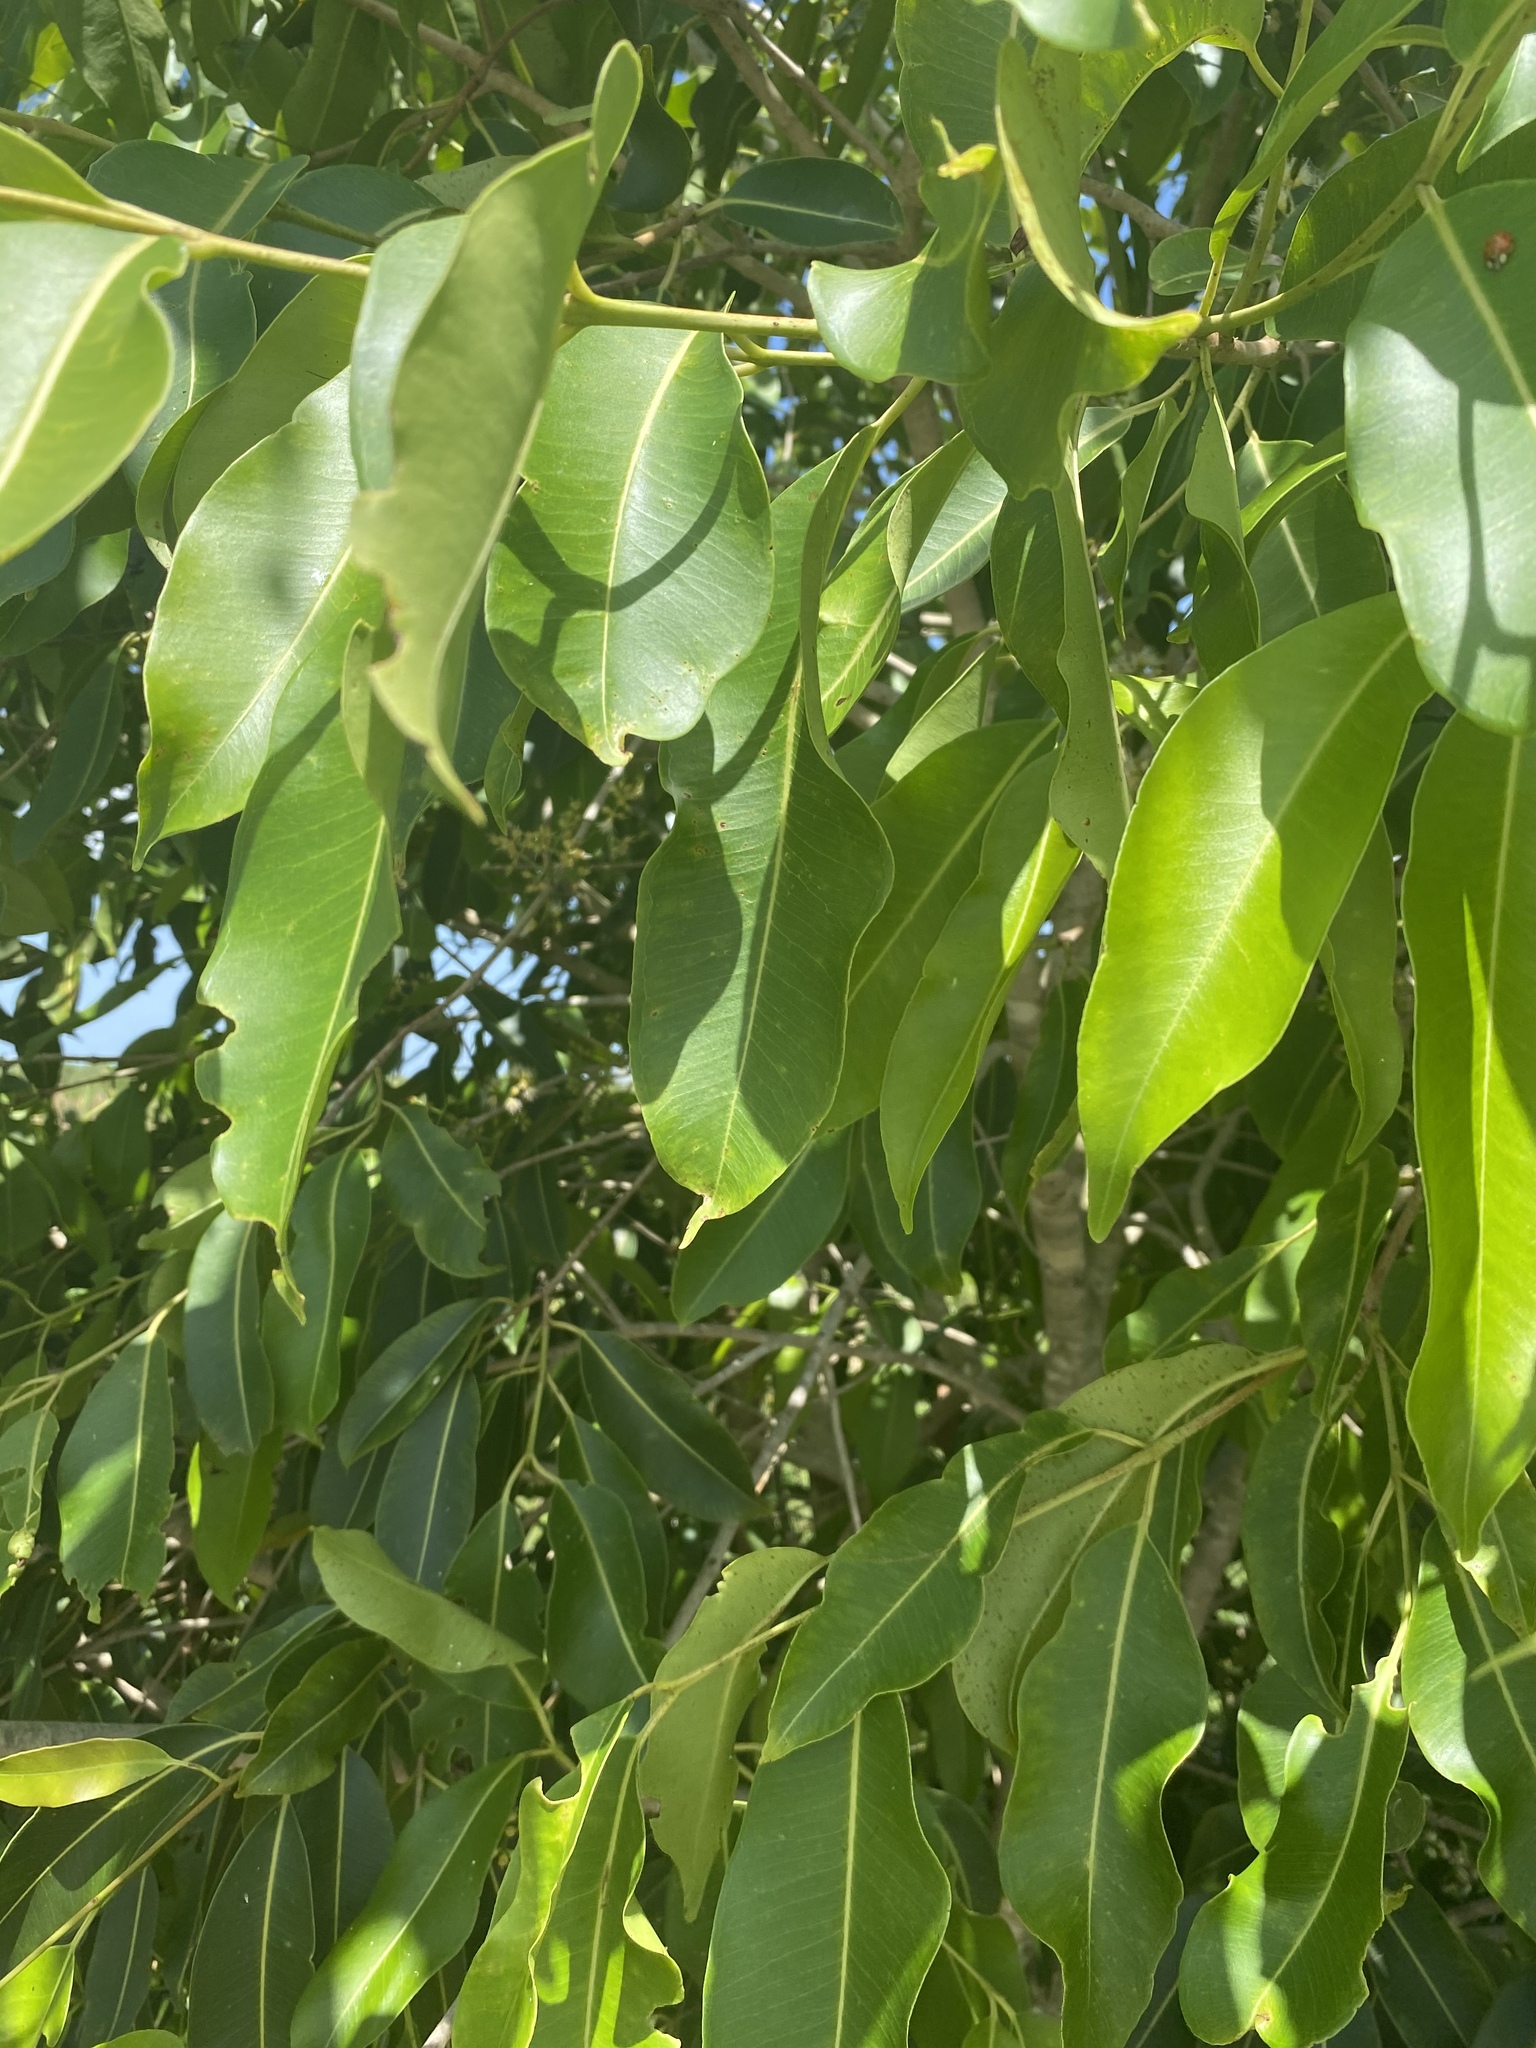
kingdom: Plantae
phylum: Tracheophyta
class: Magnoliopsida
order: Myrtales
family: Myrtaceae
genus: Syzygium
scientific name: Syzygium cumini
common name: Java plum
